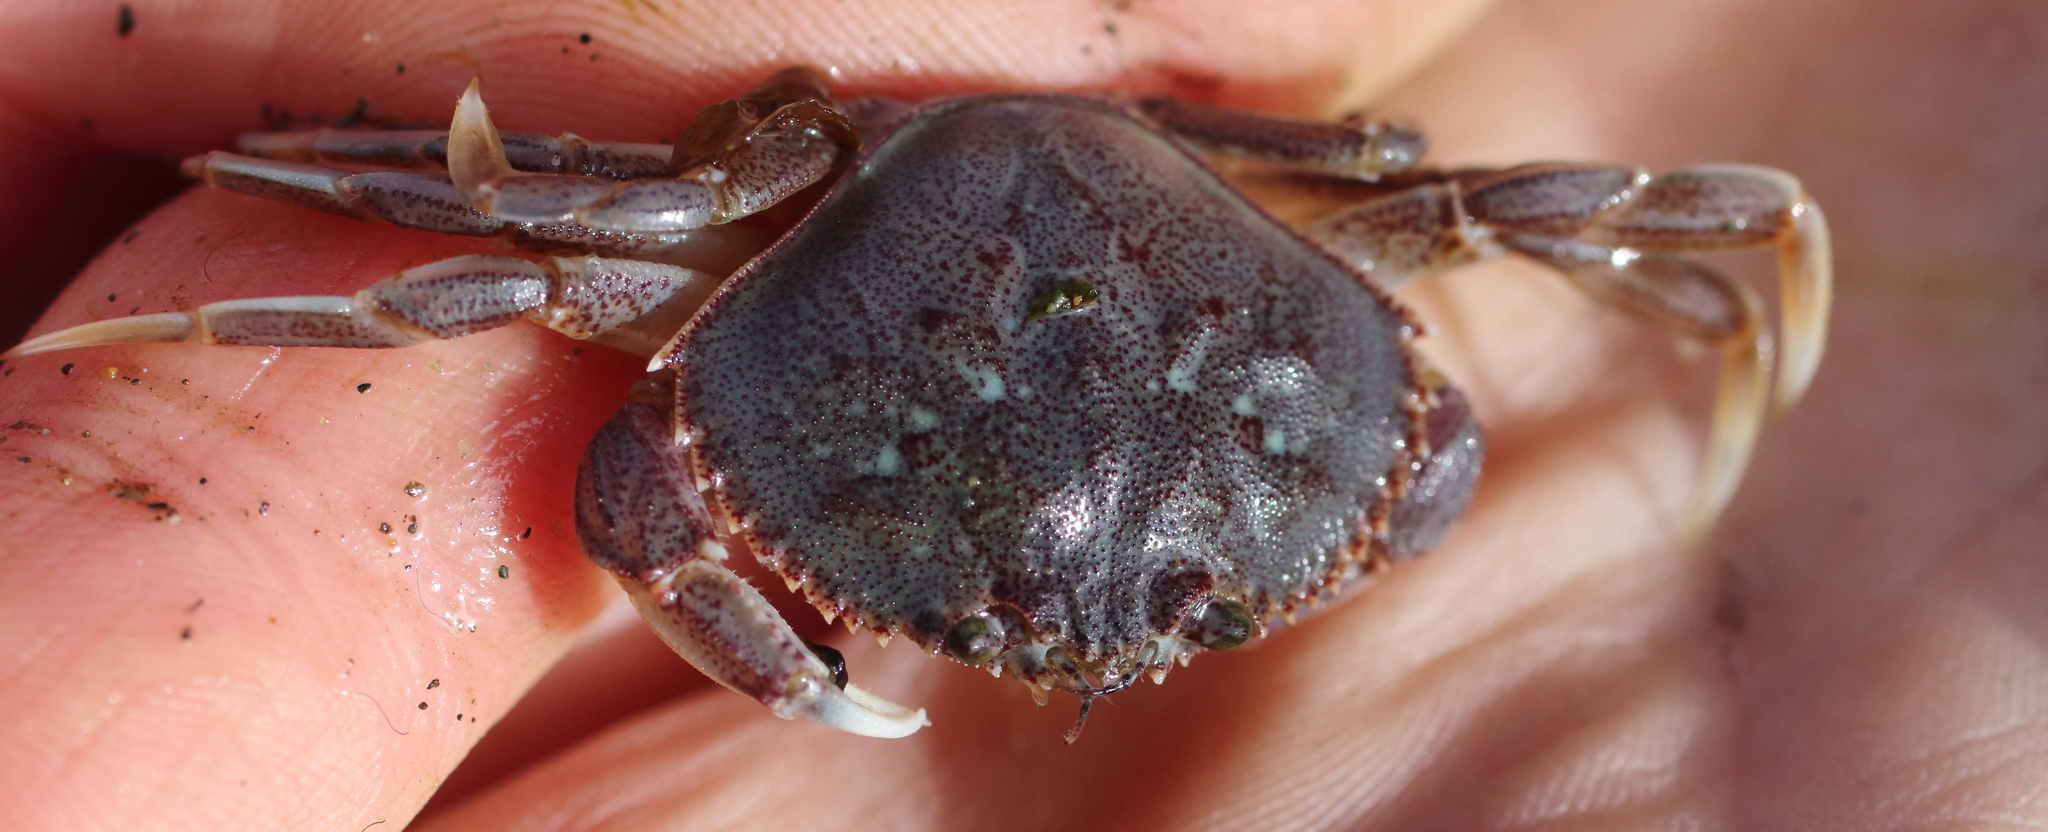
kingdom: Animalia
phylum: Arthropoda
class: Malacostraca
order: Decapoda
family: Cancridae
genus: Metacarcinus
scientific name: Metacarcinus magister
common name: Californian crab
